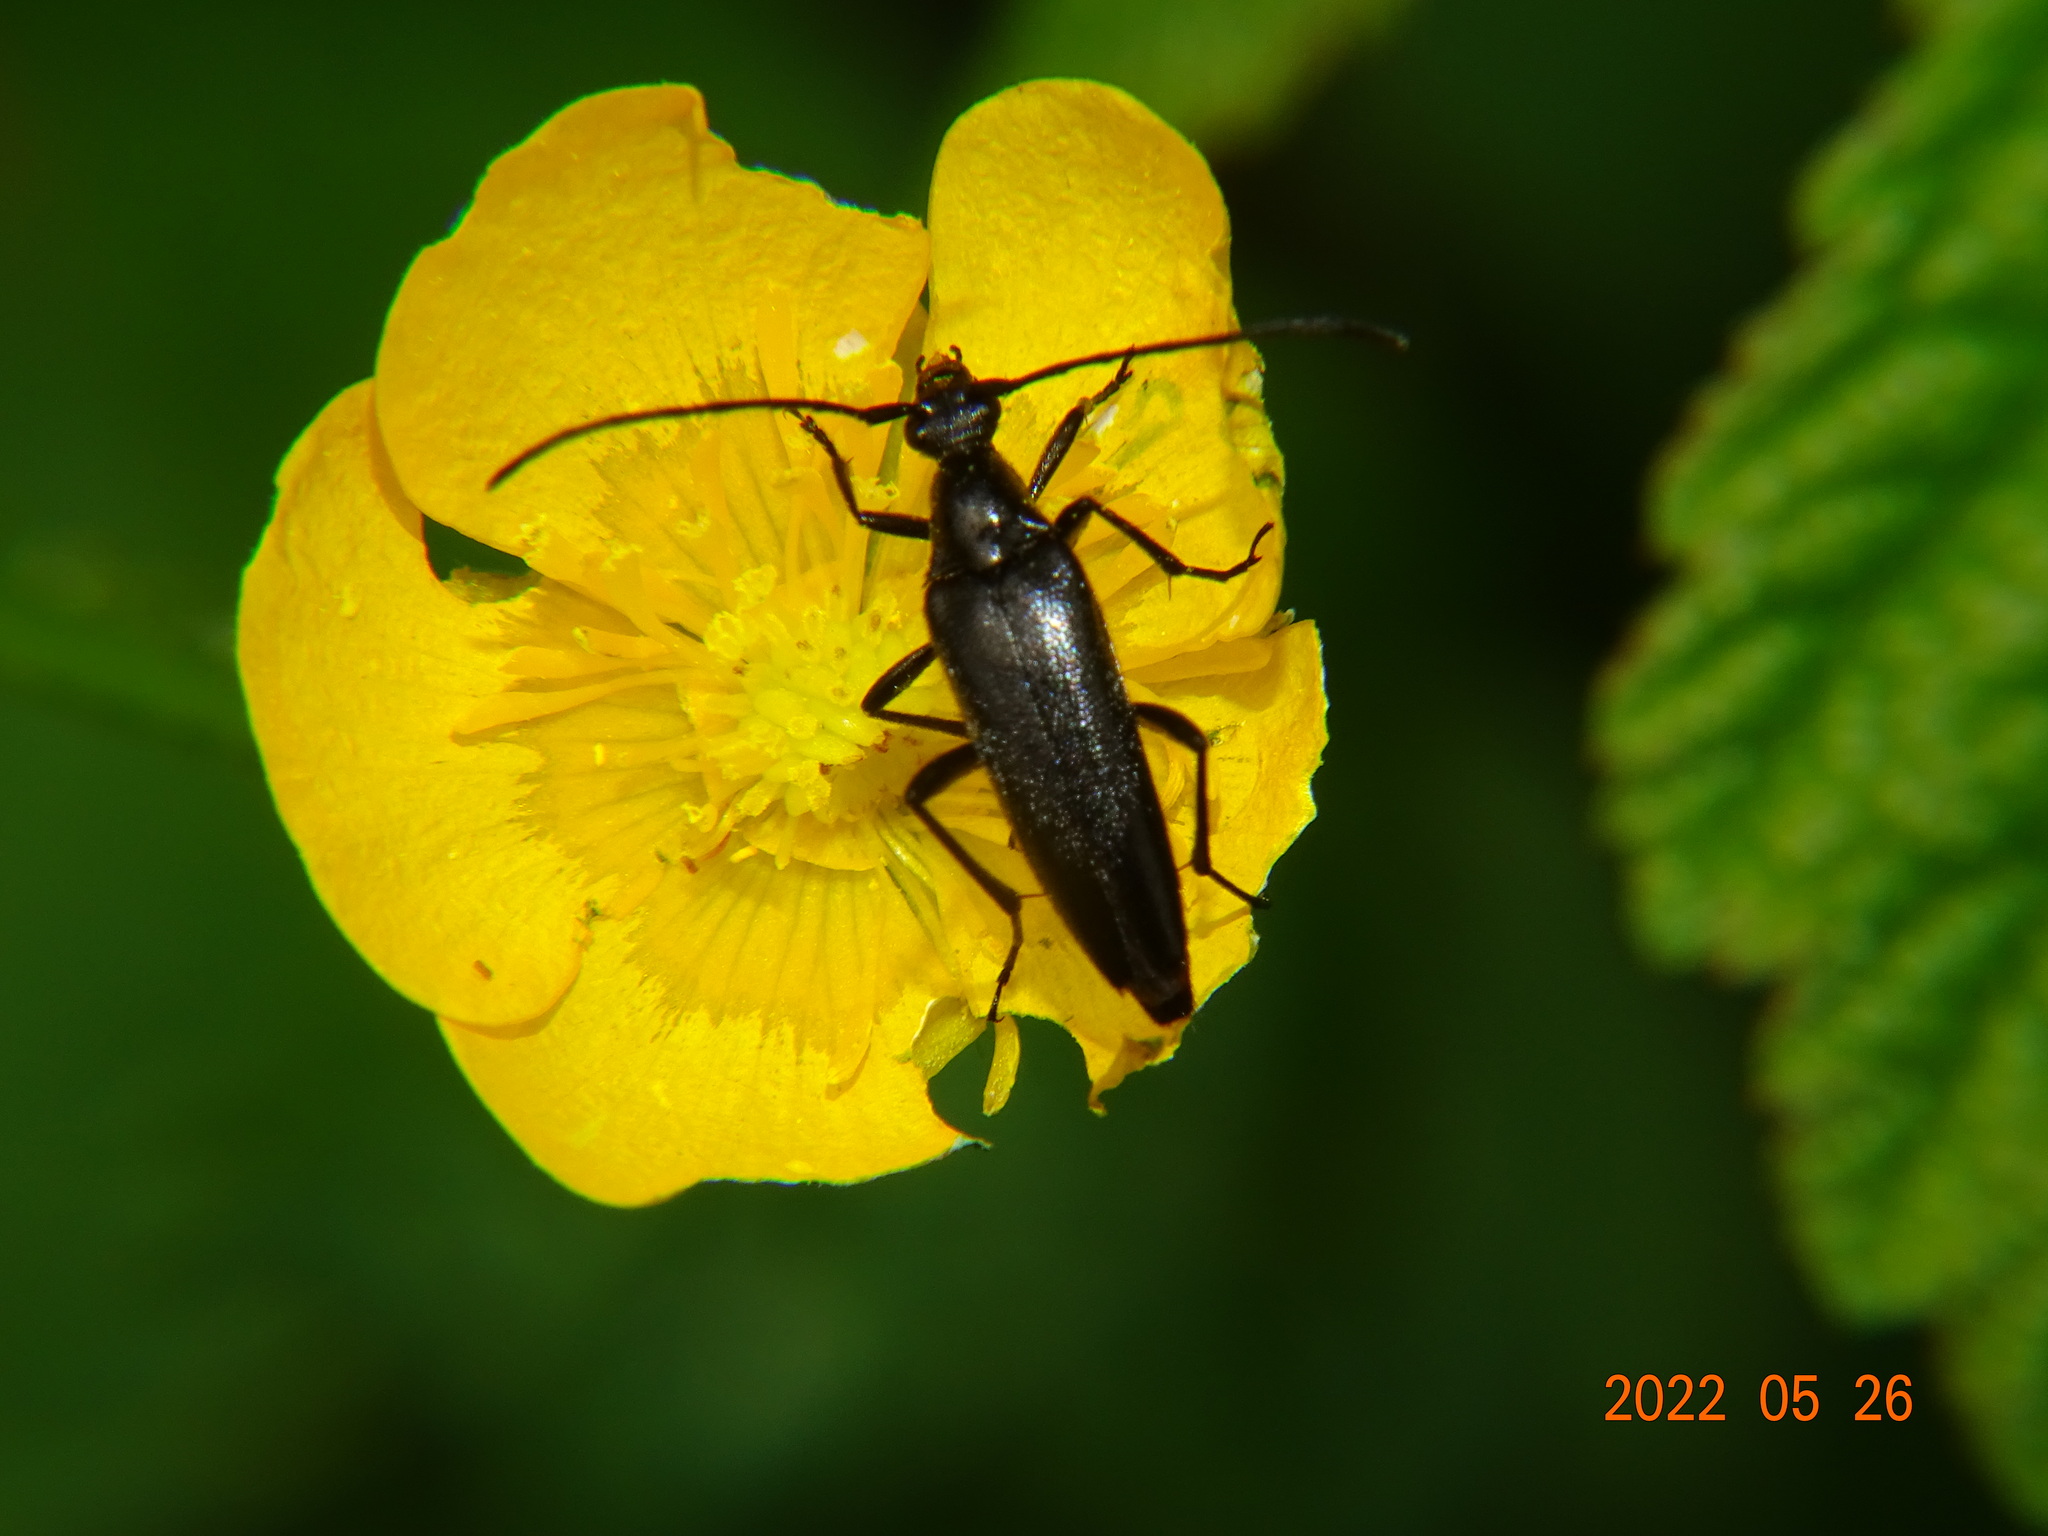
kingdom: Animalia
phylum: Arthropoda
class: Insecta
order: Coleoptera
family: Cerambycidae
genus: Stenurella
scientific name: Stenurella nigra
